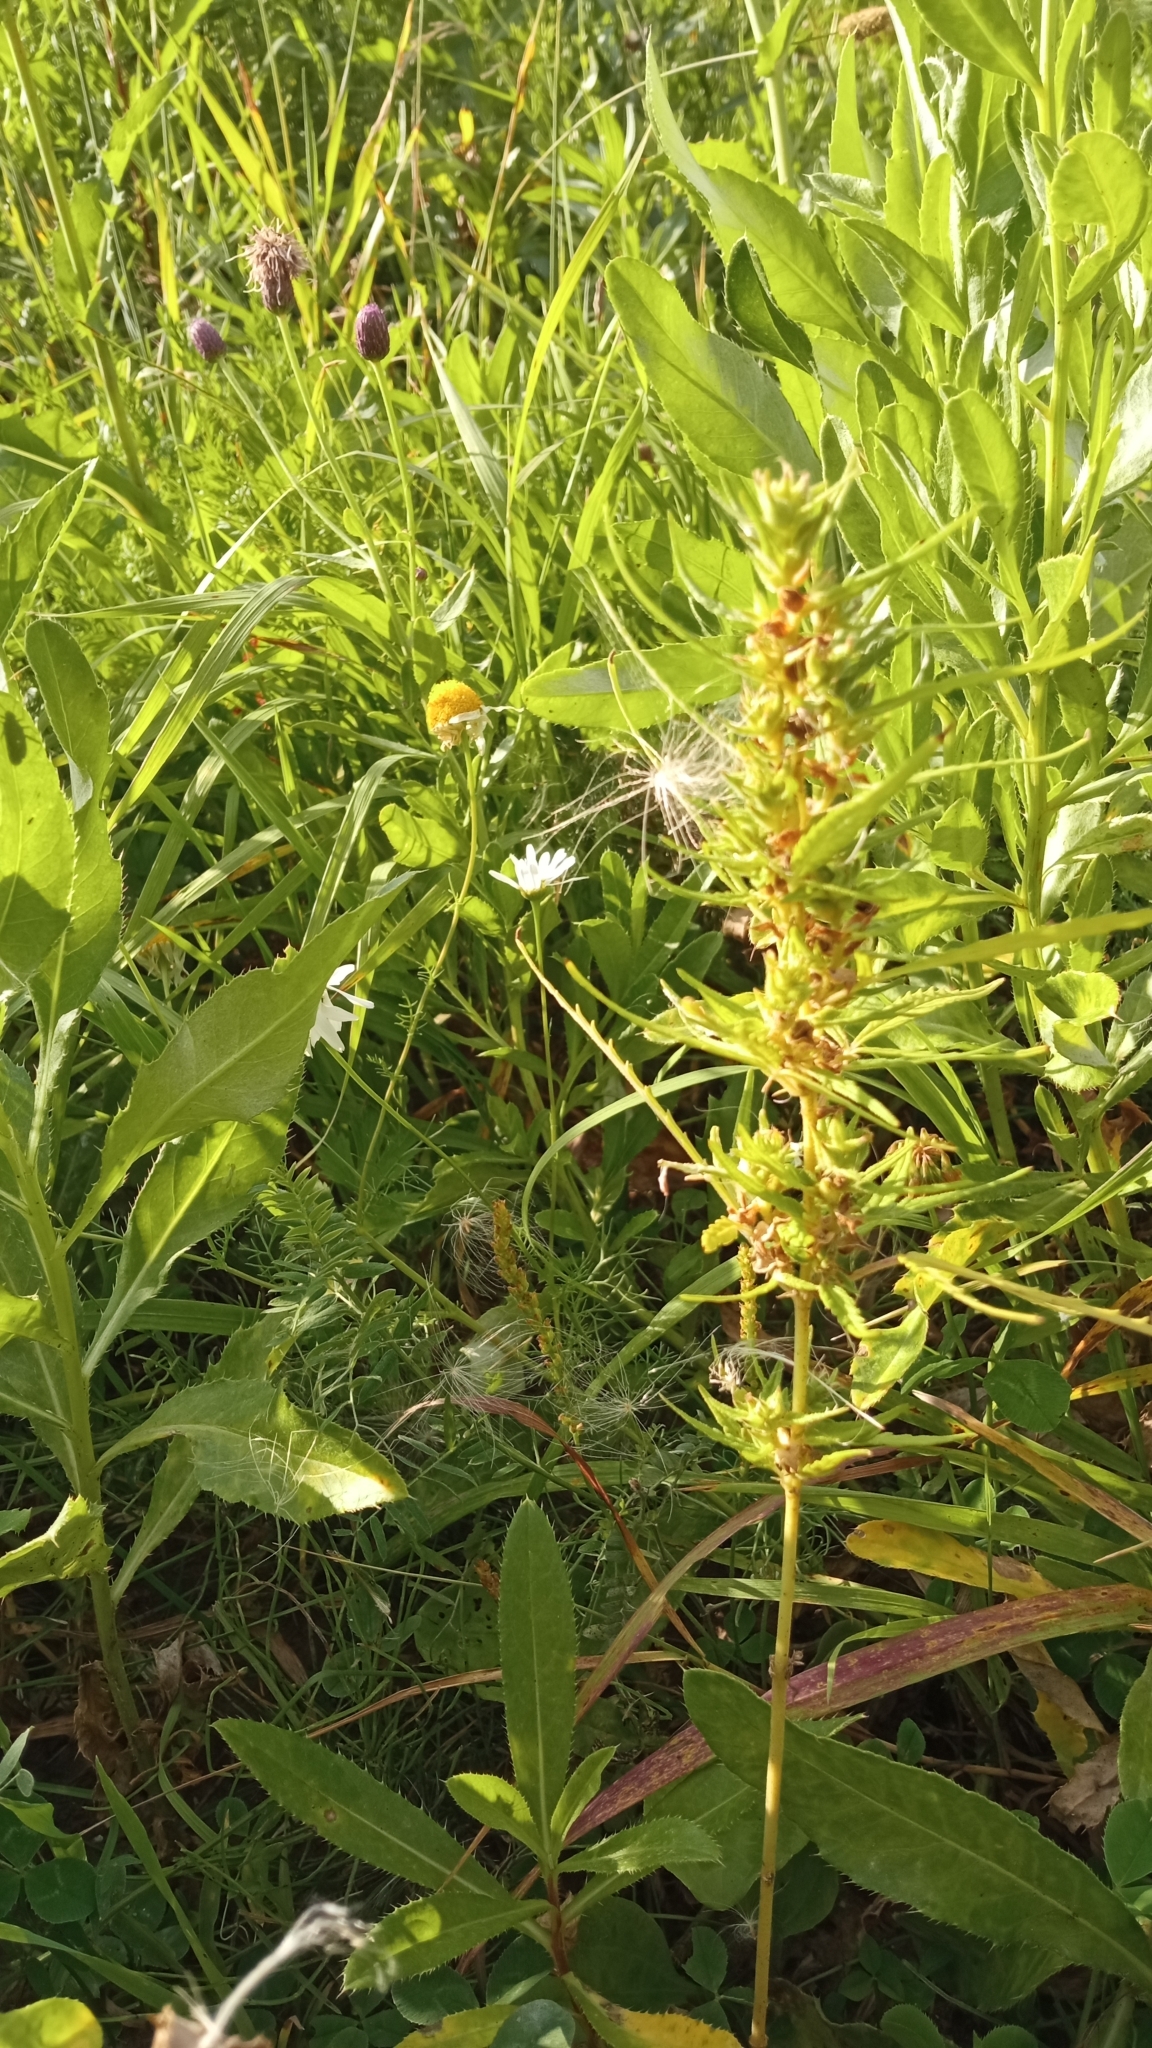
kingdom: Plantae
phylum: Tracheophyta
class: Magnoliopsida
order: Rosales
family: Cannabaceae
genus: Cannabis
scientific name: Cannabis sativa
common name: Hemp
